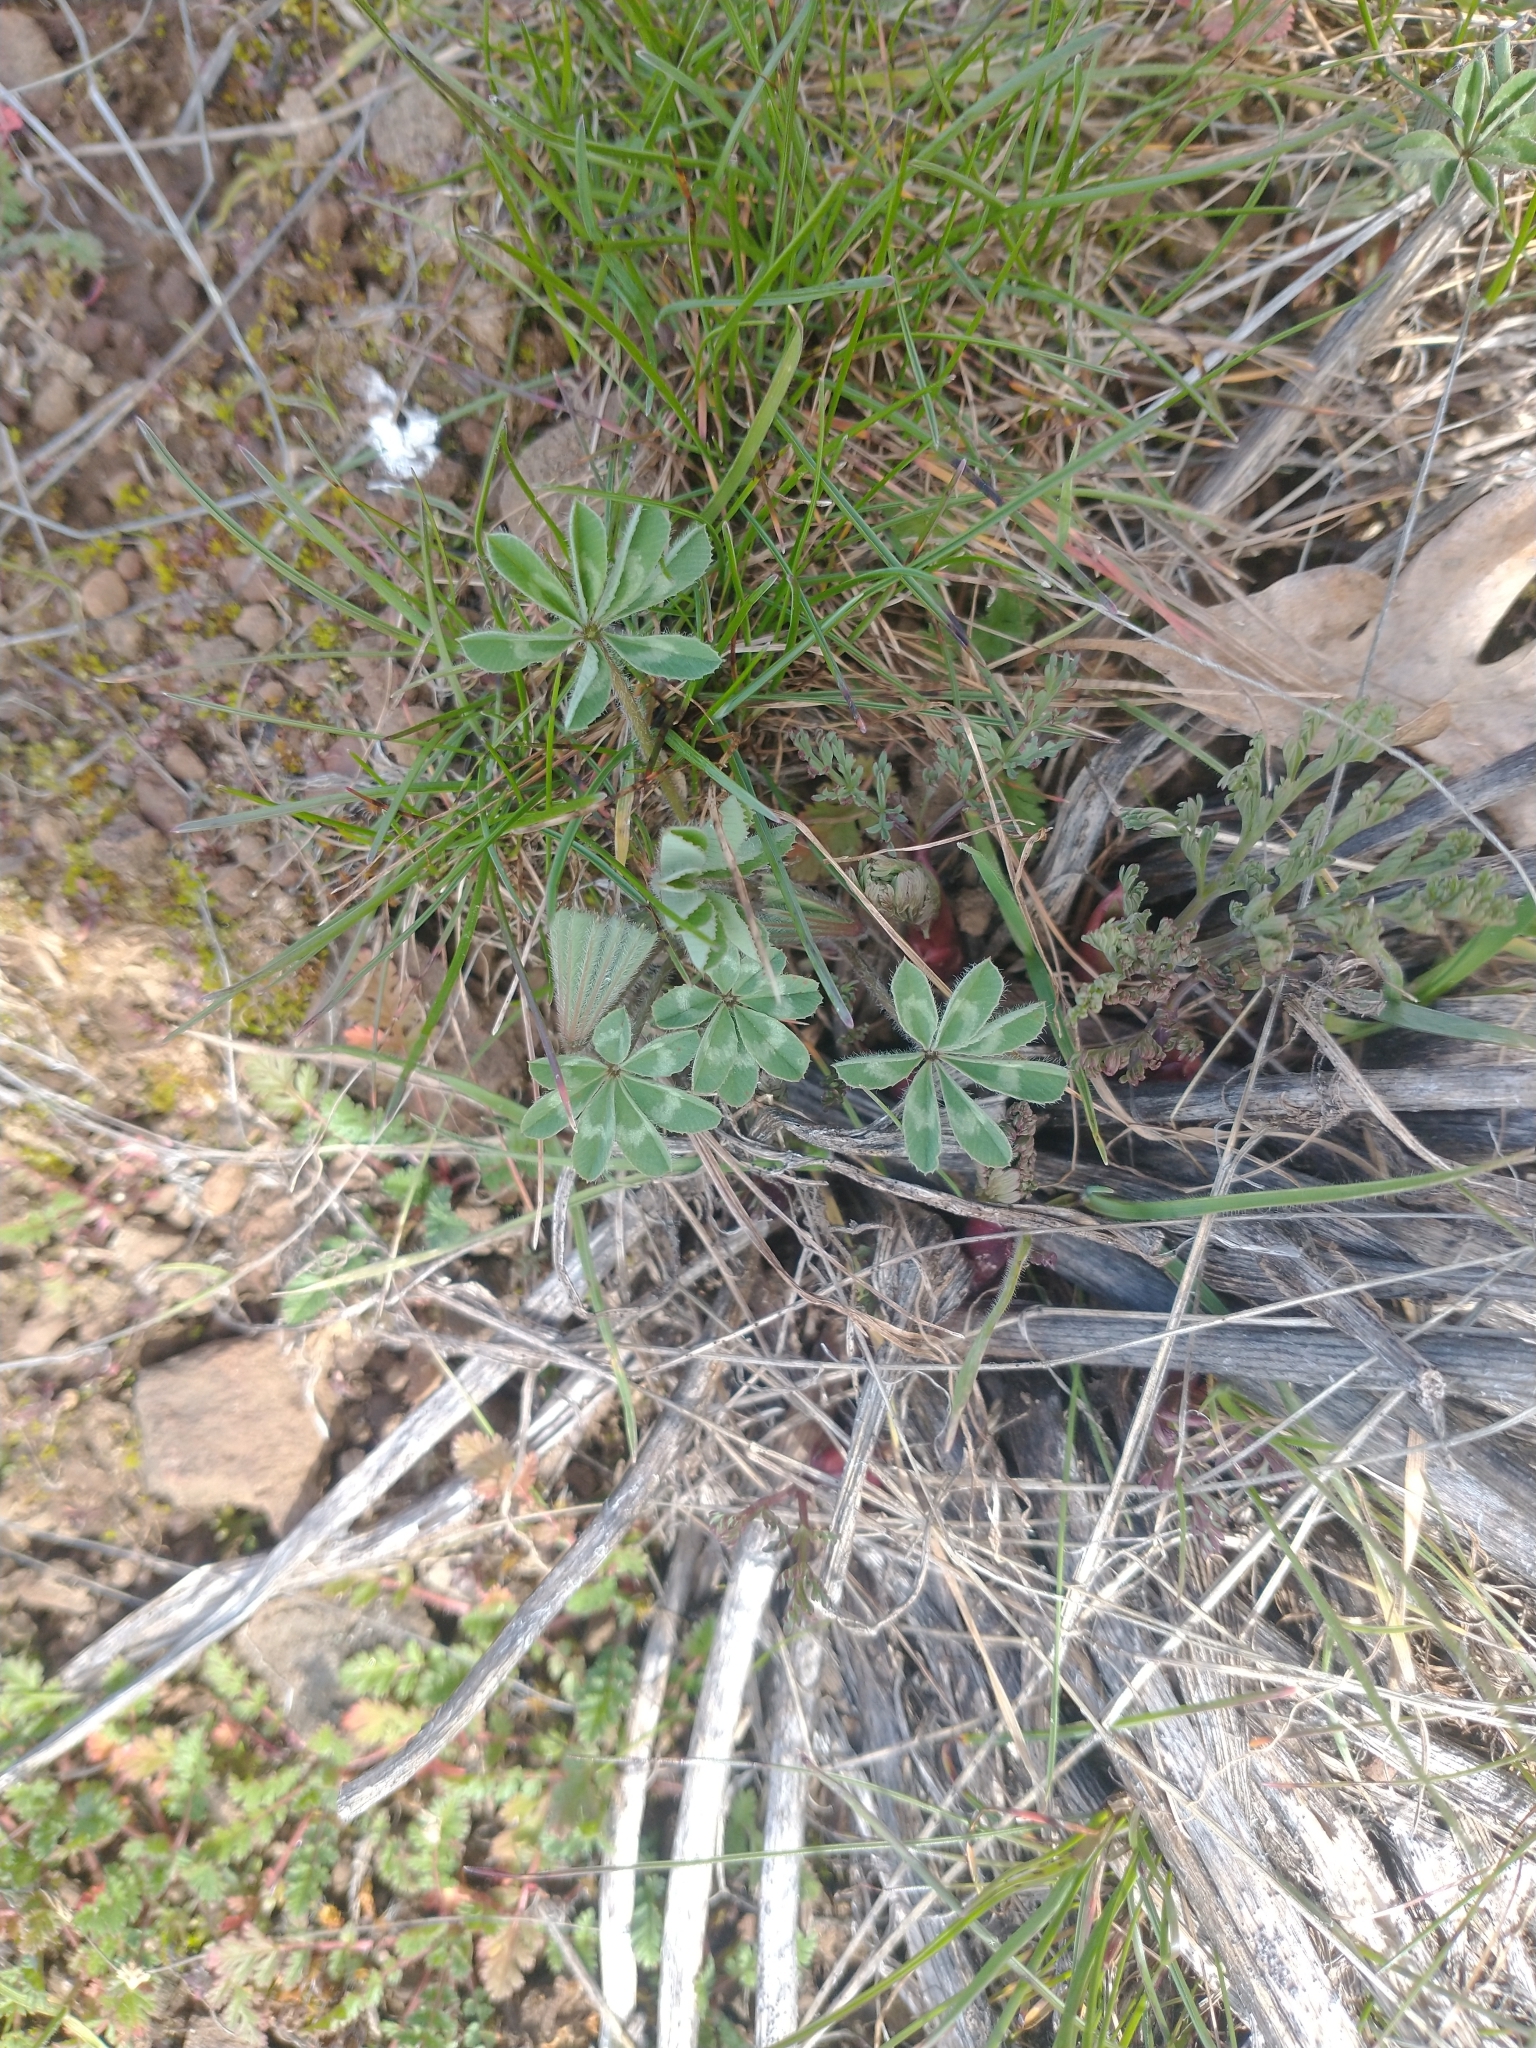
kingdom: Plantae
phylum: Tracheophyta
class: Magnoliopsida
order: Fabales
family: Fabaceae
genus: Trifolium
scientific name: Trifolium macrocephalum
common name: Large-head clover
